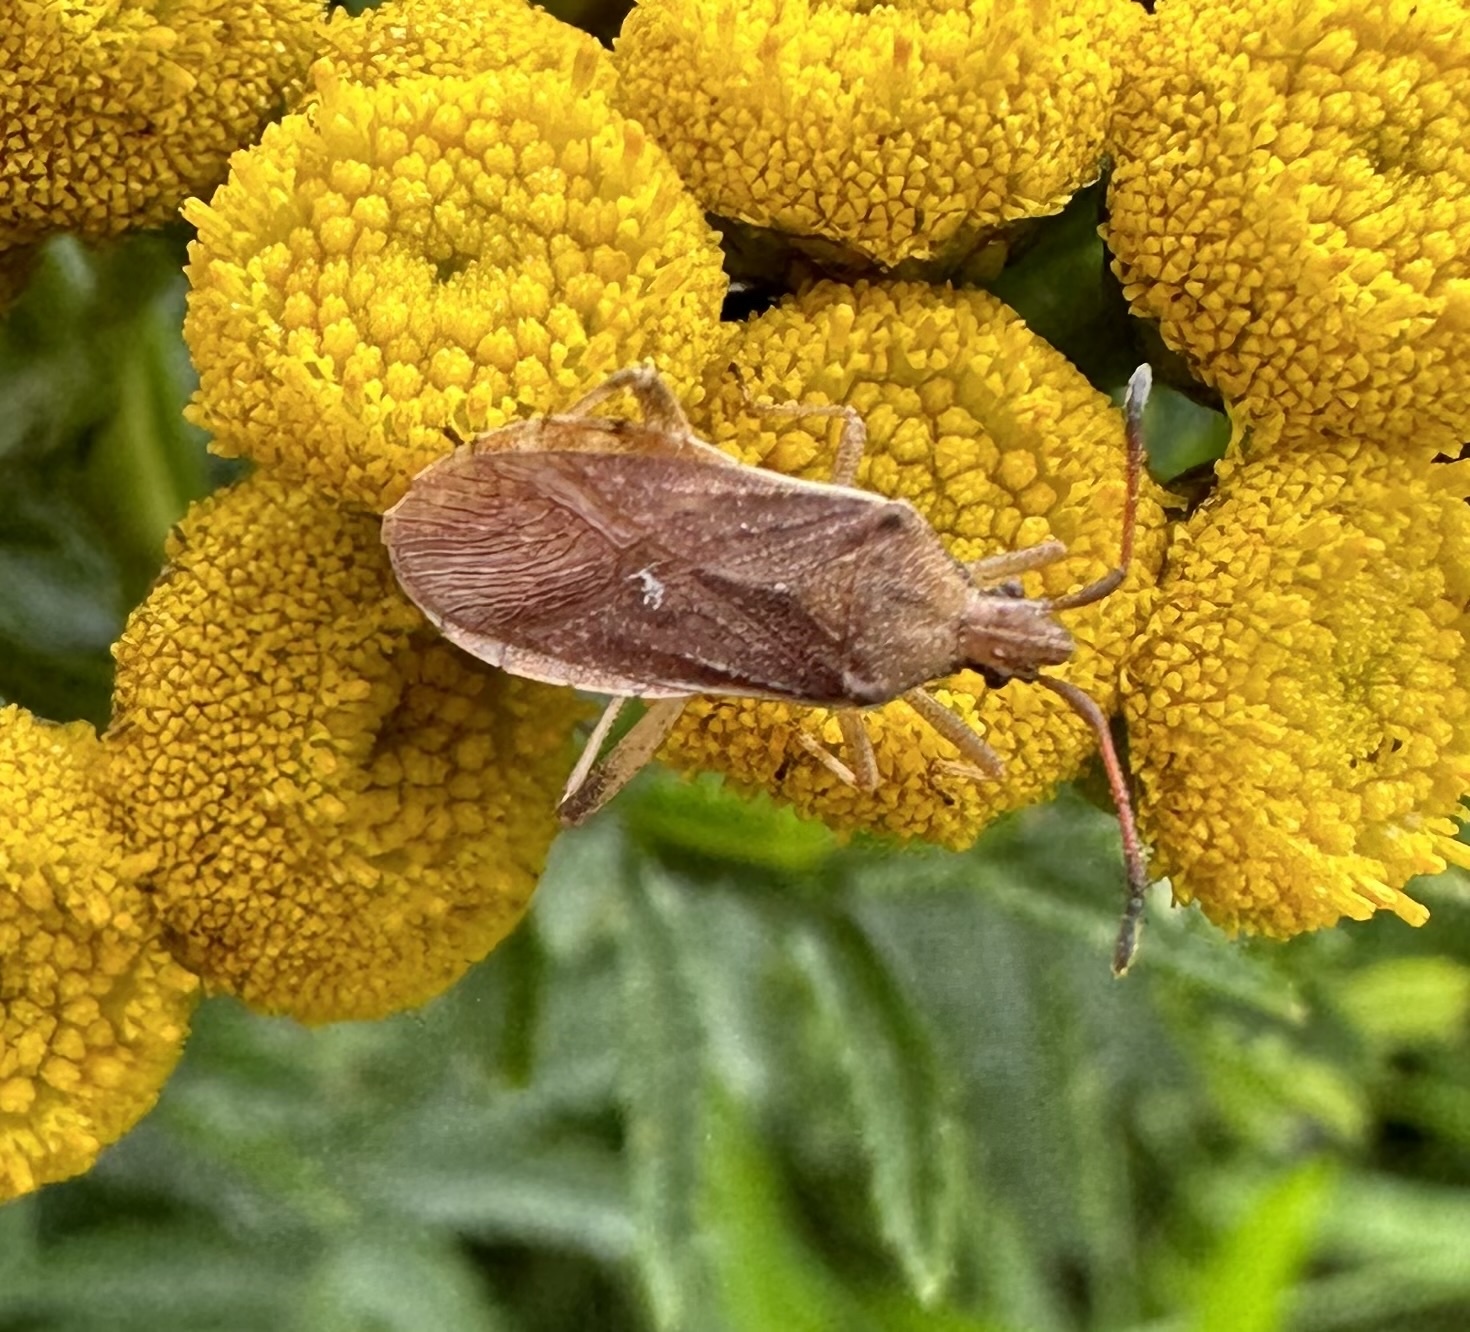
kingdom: Animalia
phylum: Arthropoda
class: Insecta
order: Hemiptera
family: Coreidae
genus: Ceraleptus
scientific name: Ceraleptus lividus
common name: Slender-horned leatherbug
